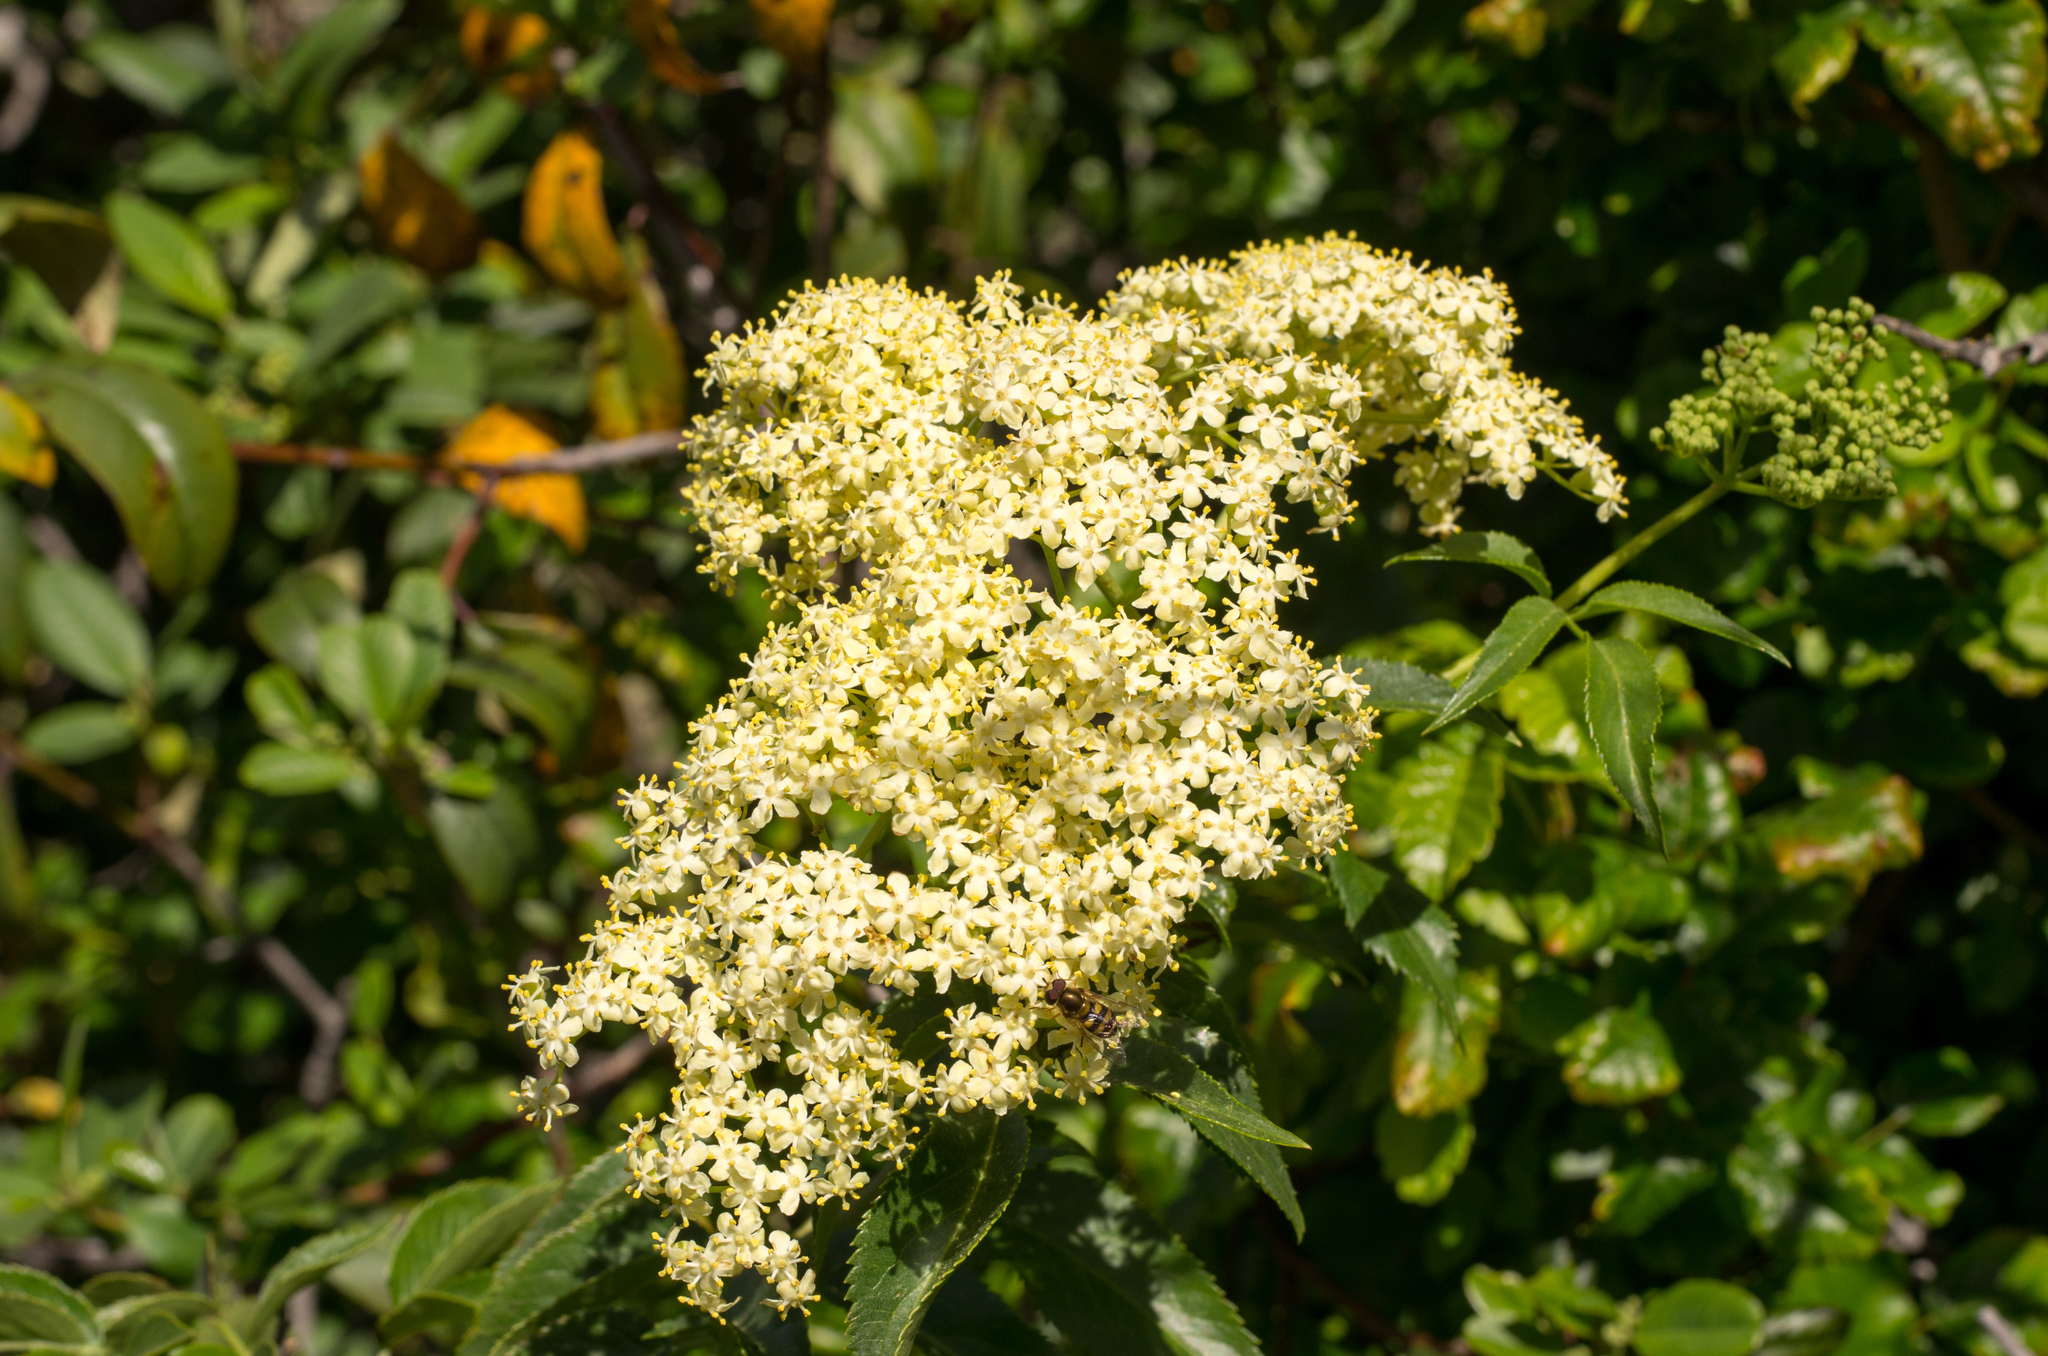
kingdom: Plantae
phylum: Tracheophyta
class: Magnoliopsida
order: Dipsacales
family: Viburnaceae
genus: Sambucus
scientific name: Sambucus cerulea
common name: Blue elder
